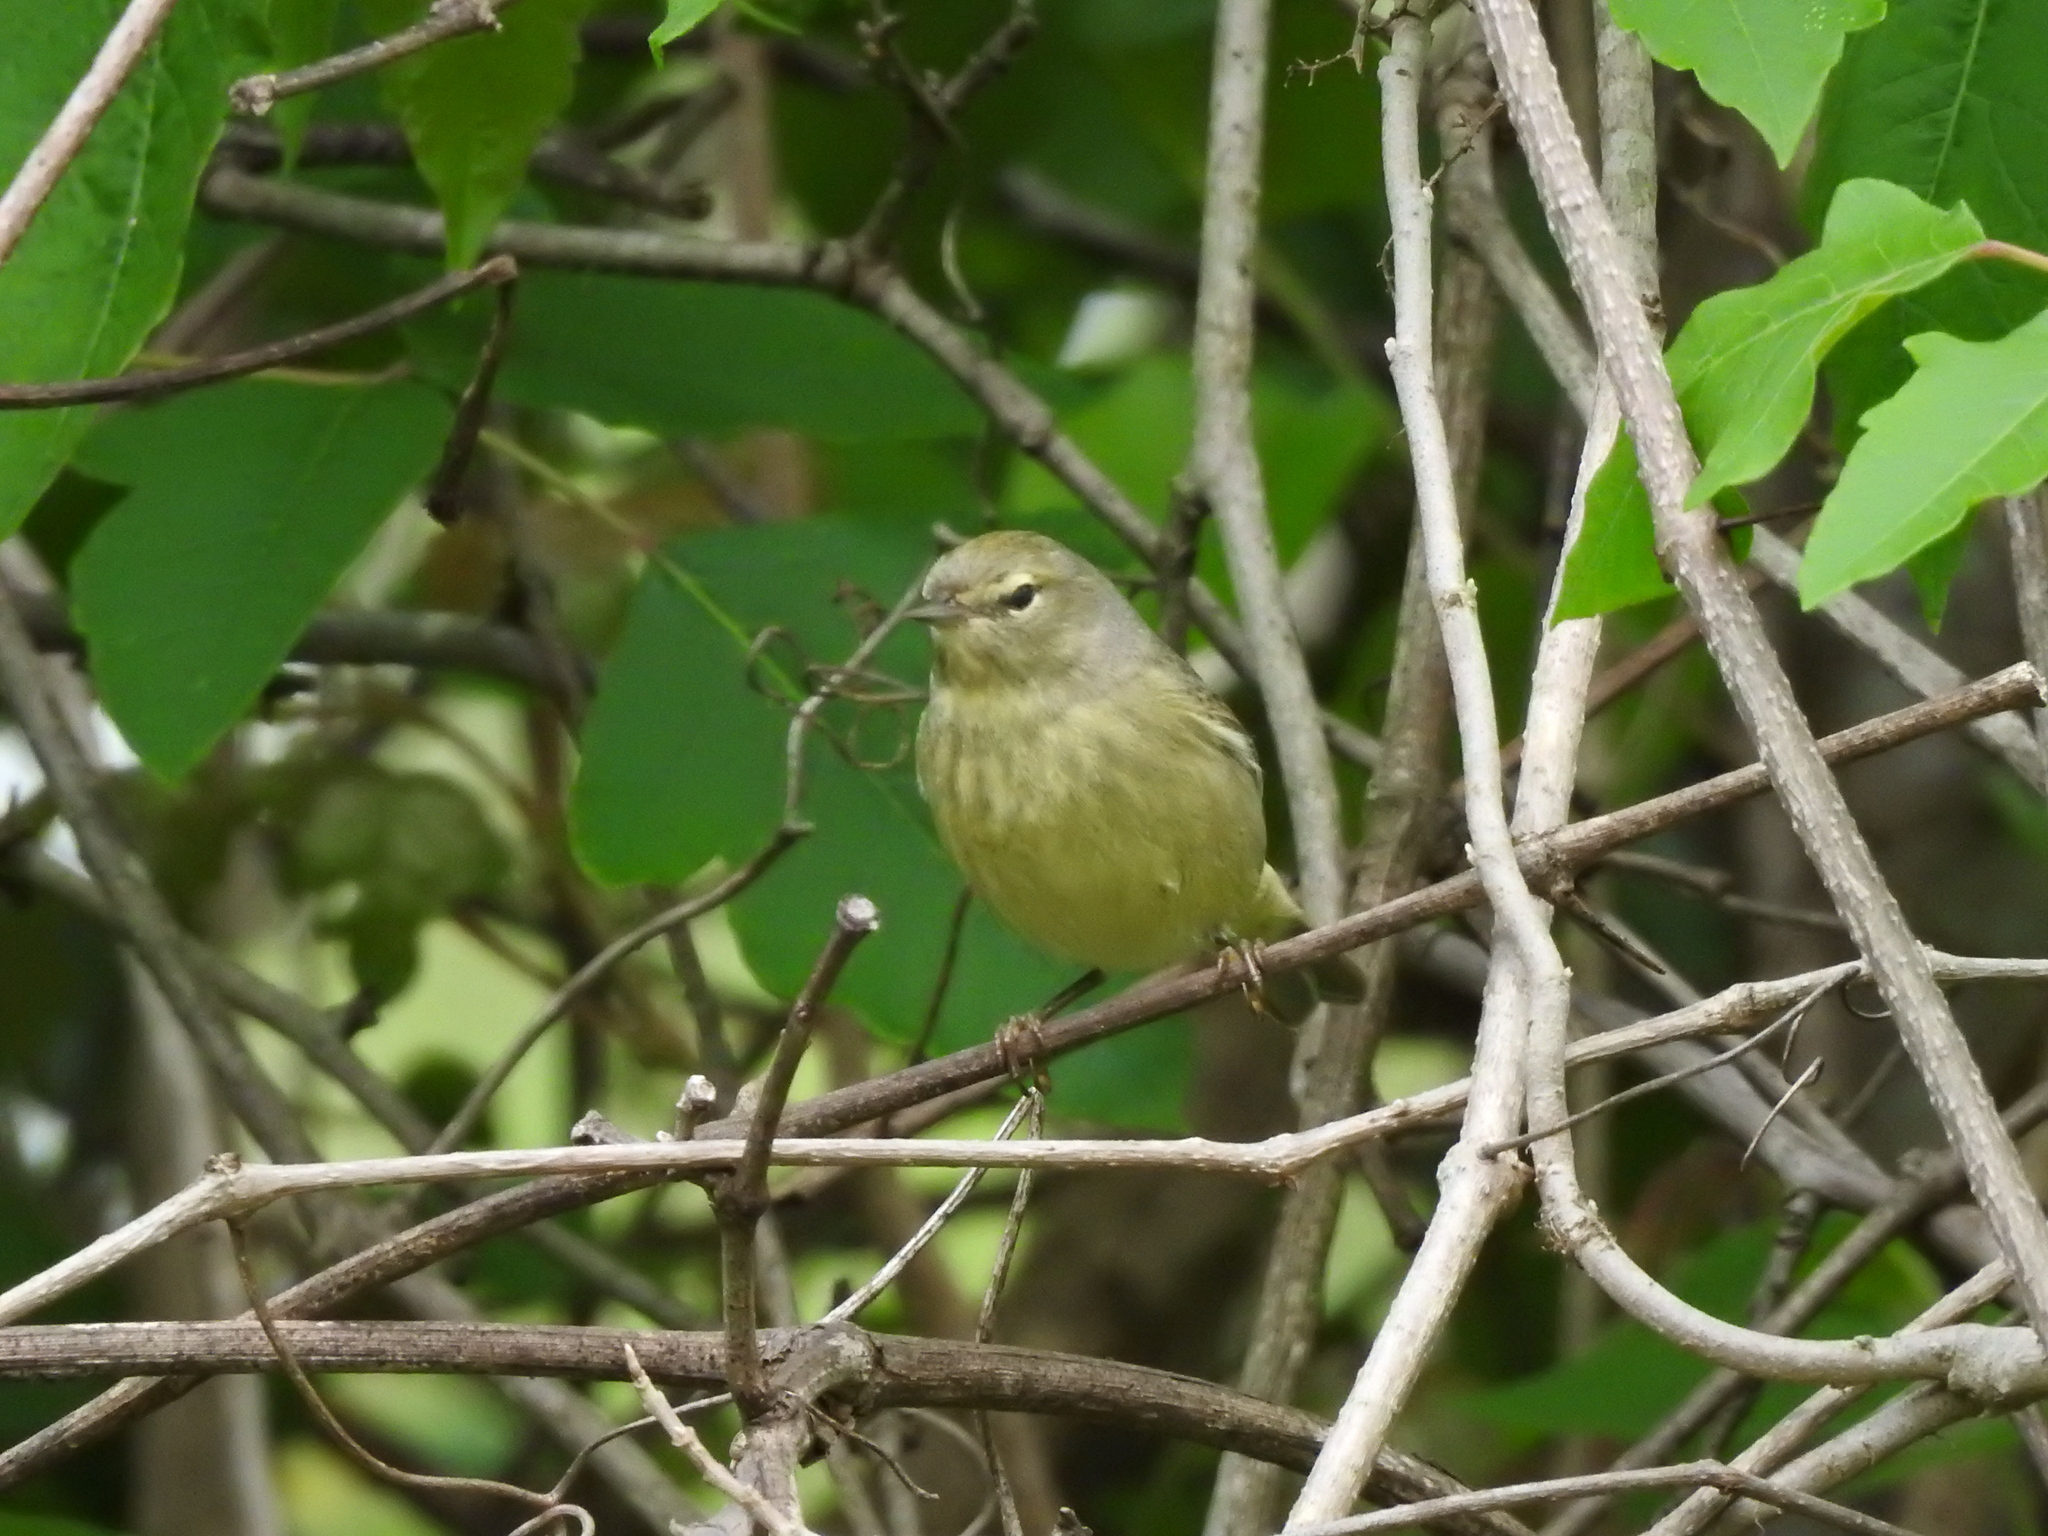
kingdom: Animalia
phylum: Chordata
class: Aves
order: Passeriformes
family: Parulidae
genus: Leiothlypis
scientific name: Leiothlypis celata
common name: Orange-crowned warbler
